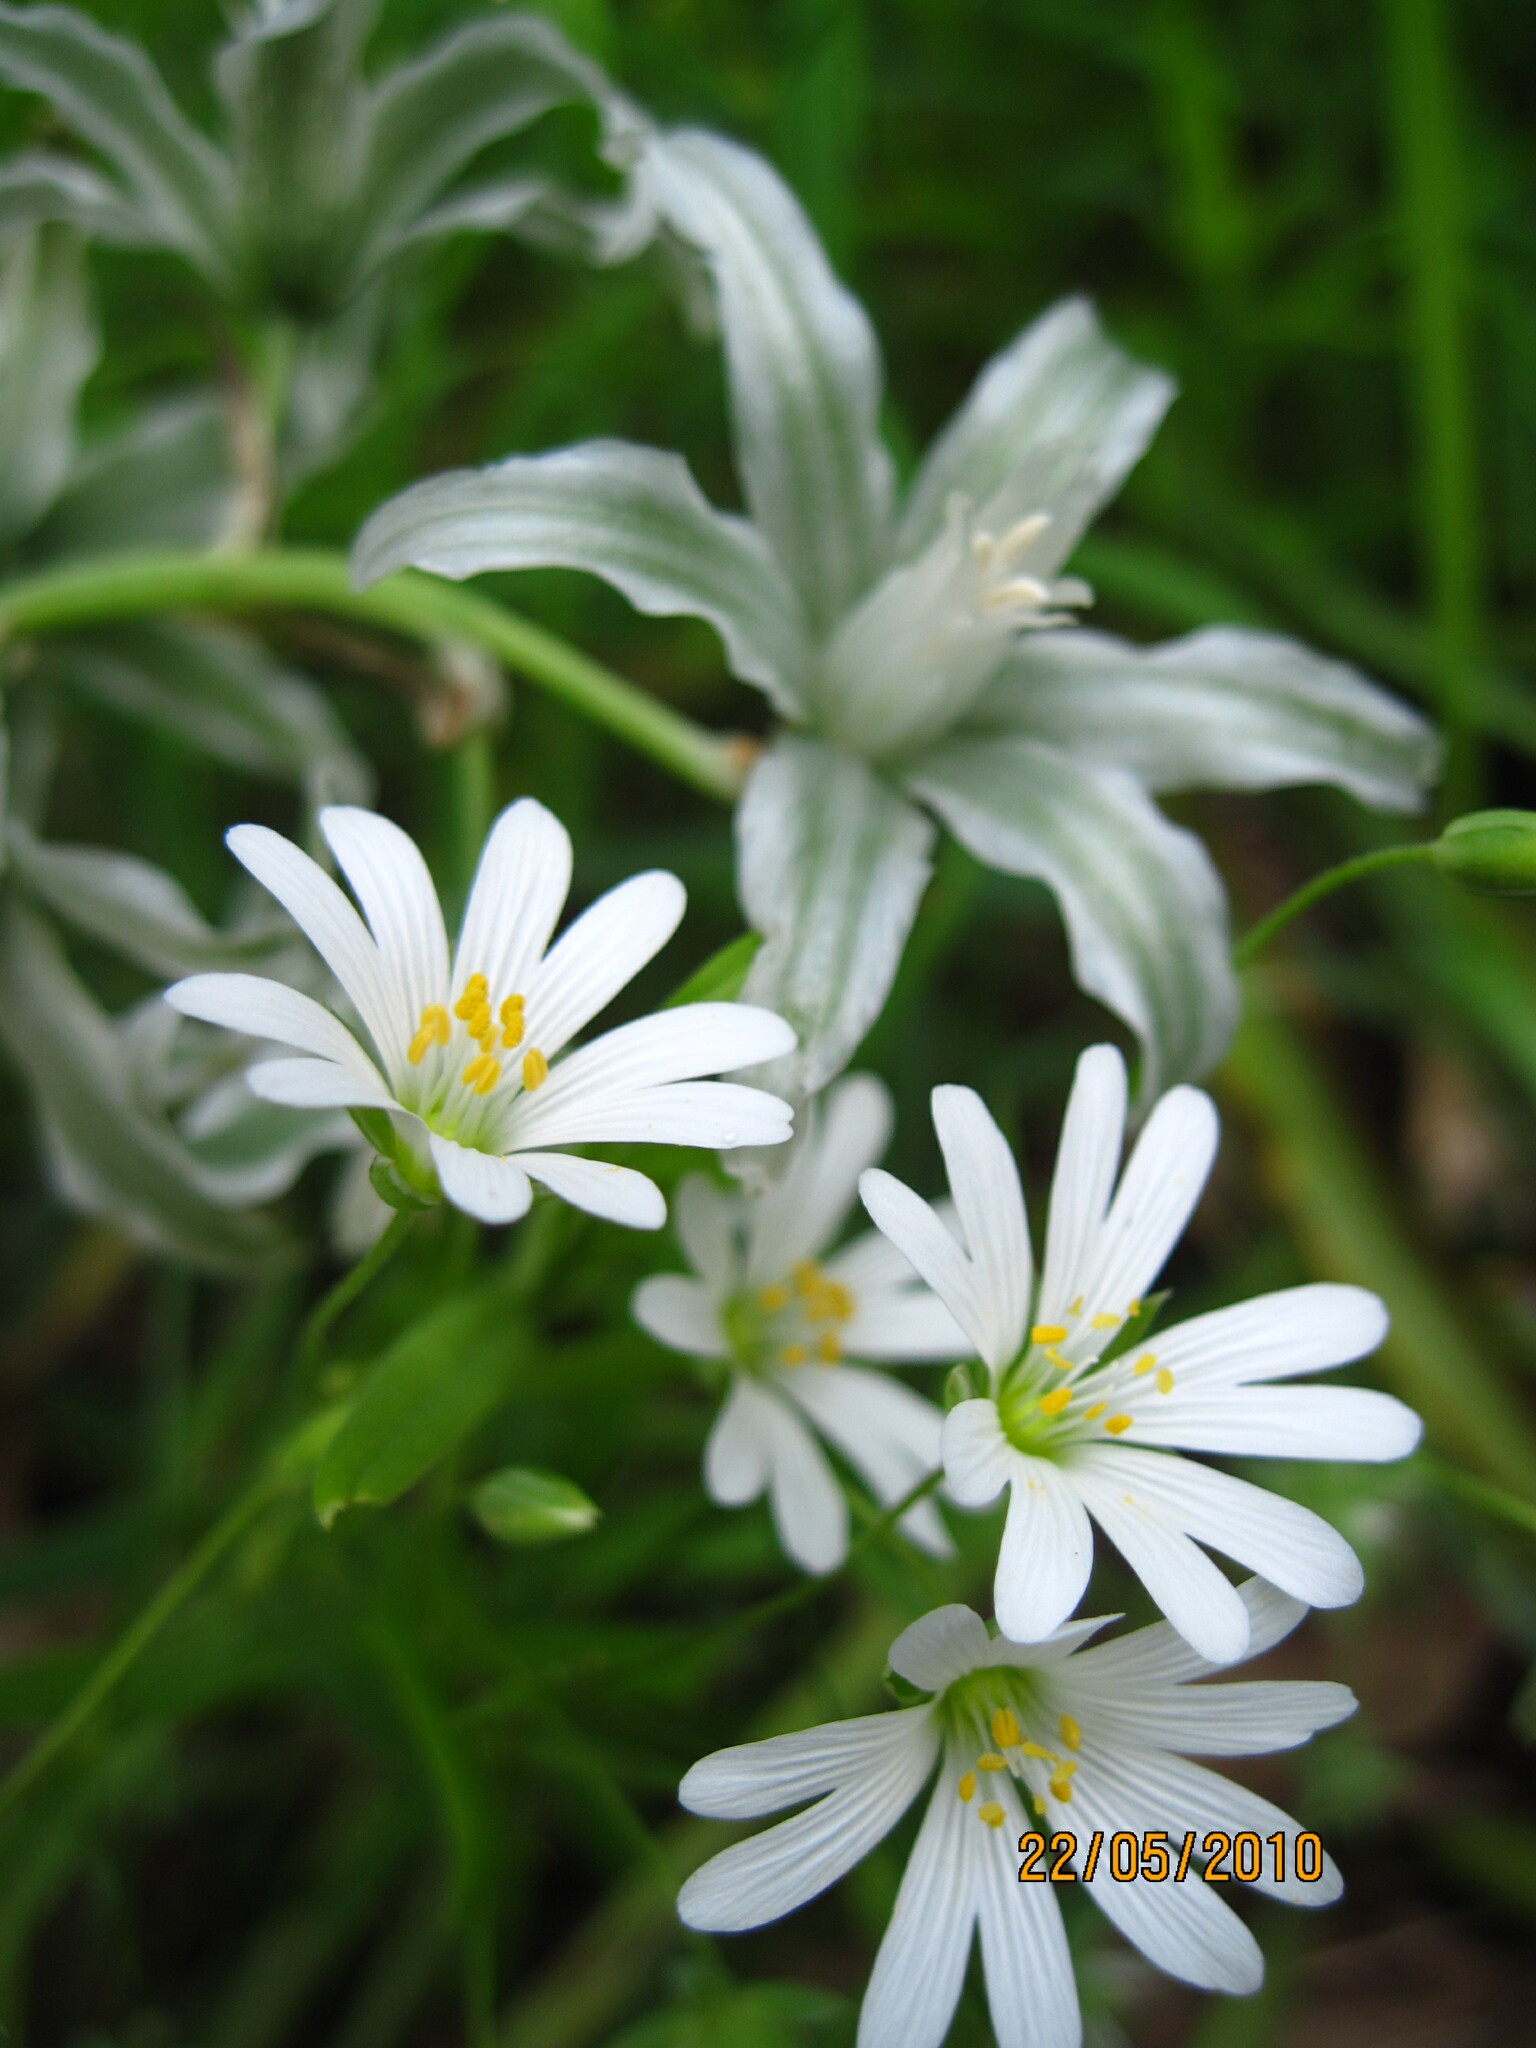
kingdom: Plantae
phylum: Tracheophyta
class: Magnoliopsida
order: Caryophyllales
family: Caryophyllaceae
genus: Rabelera
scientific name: Rabelera holostea
